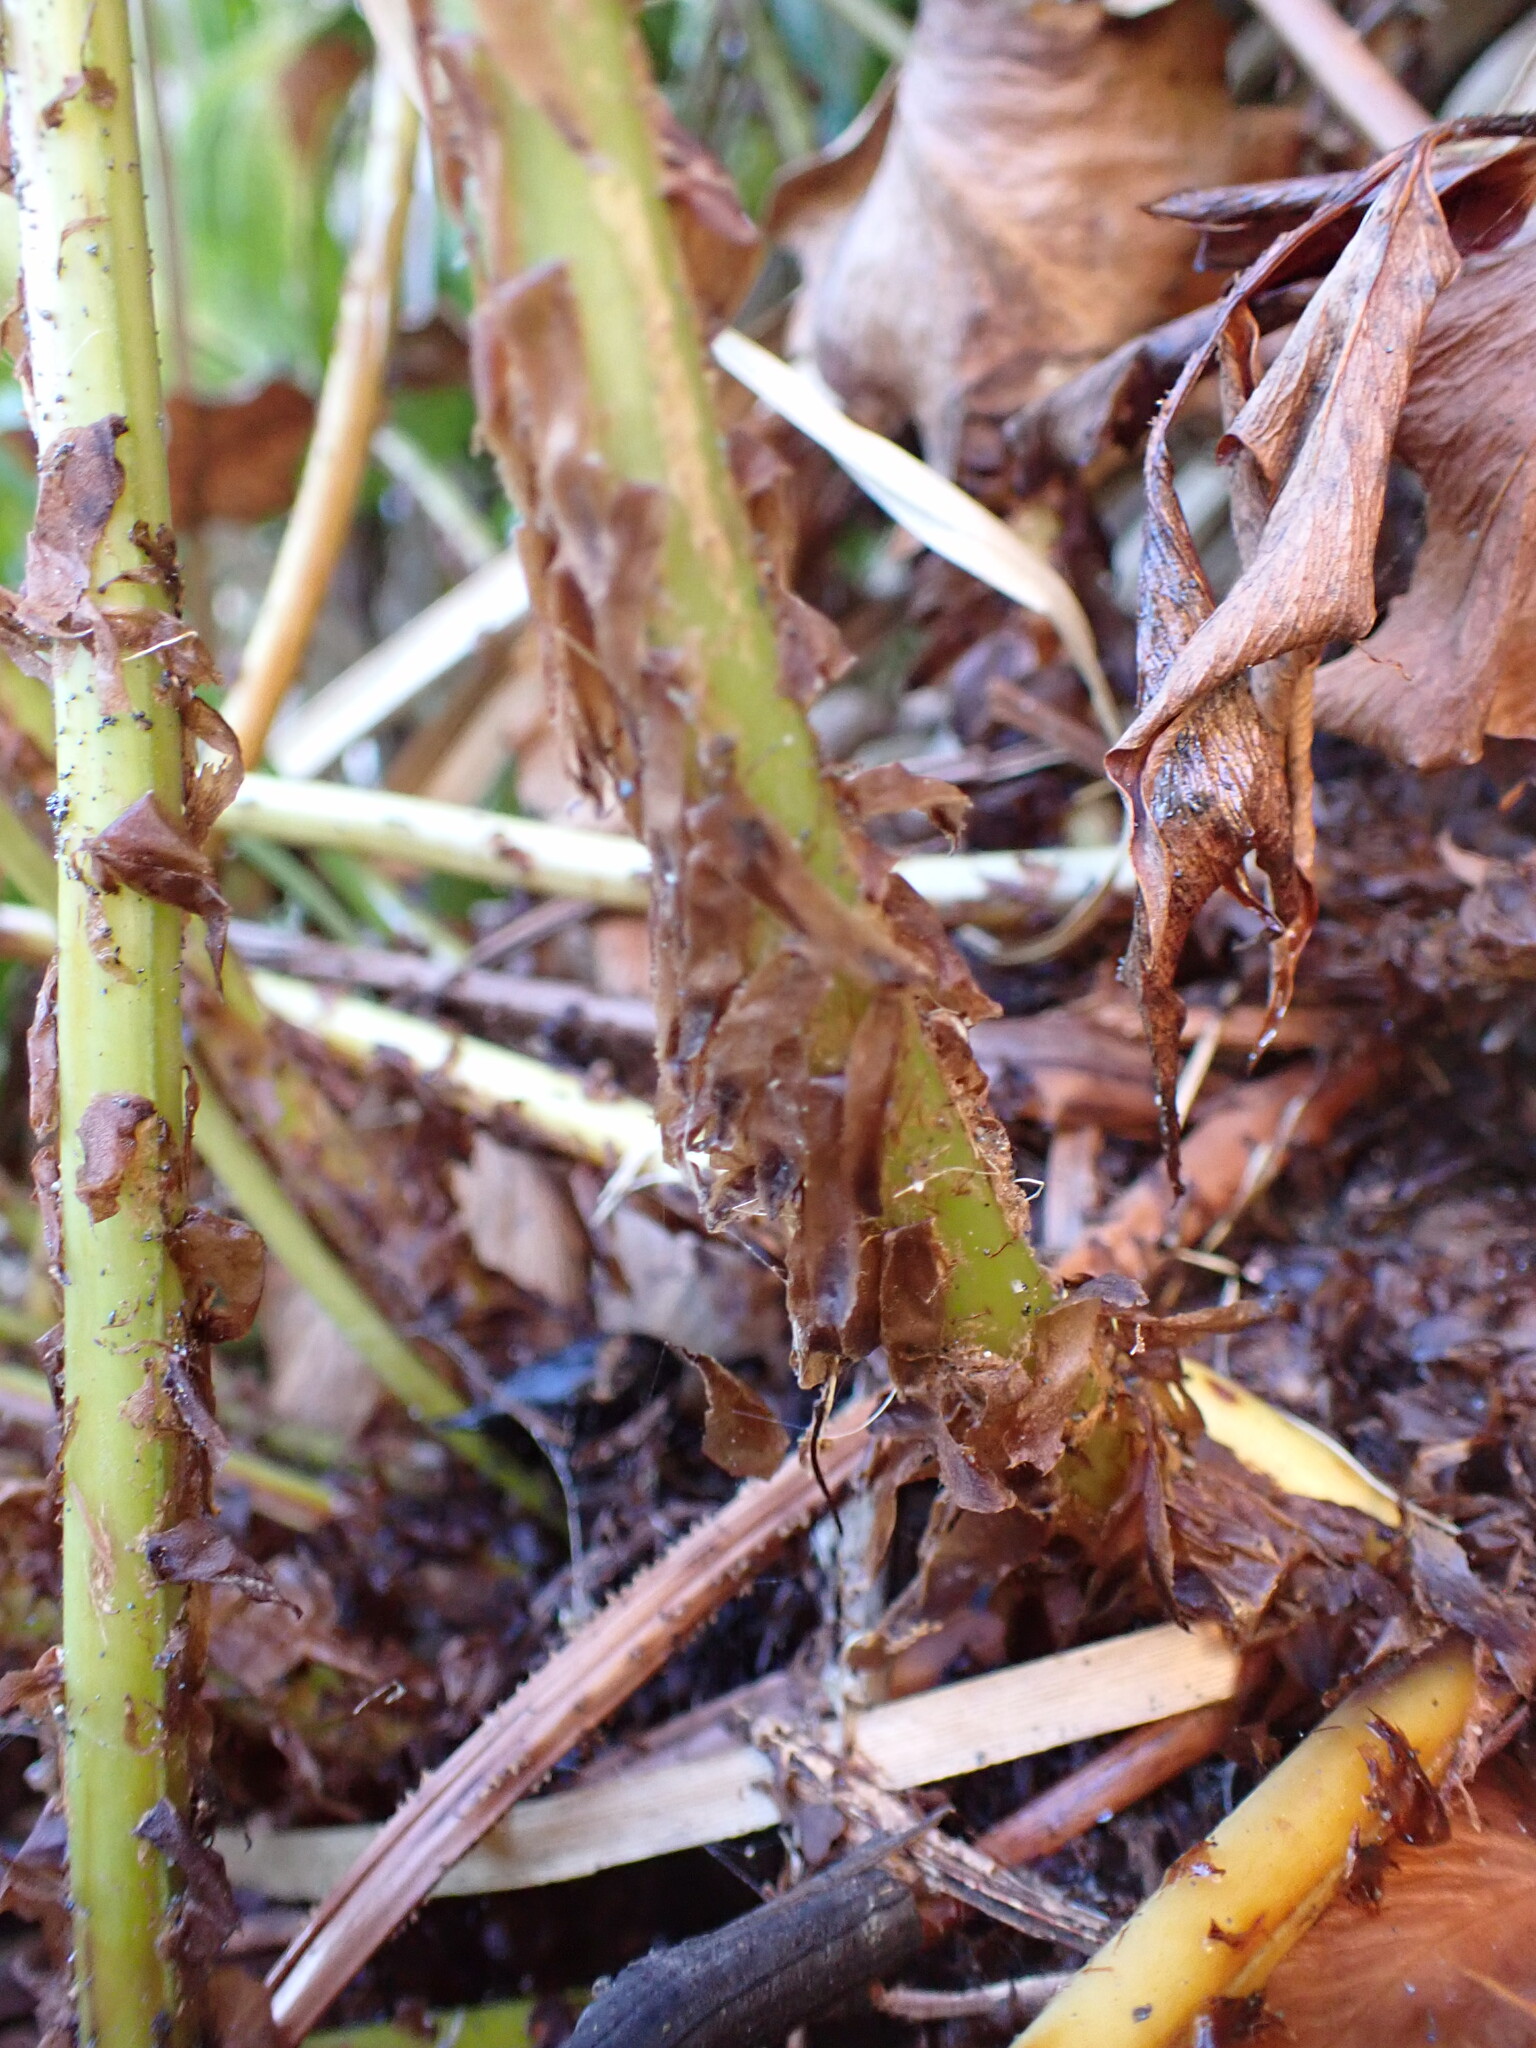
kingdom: Plantae
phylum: Tracheophyta
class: Polypodiopsida
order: Polypodiales
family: Dryopteridaceae
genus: Cyrtomium
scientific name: Cyrtomium falcatum
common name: House holly-fern
